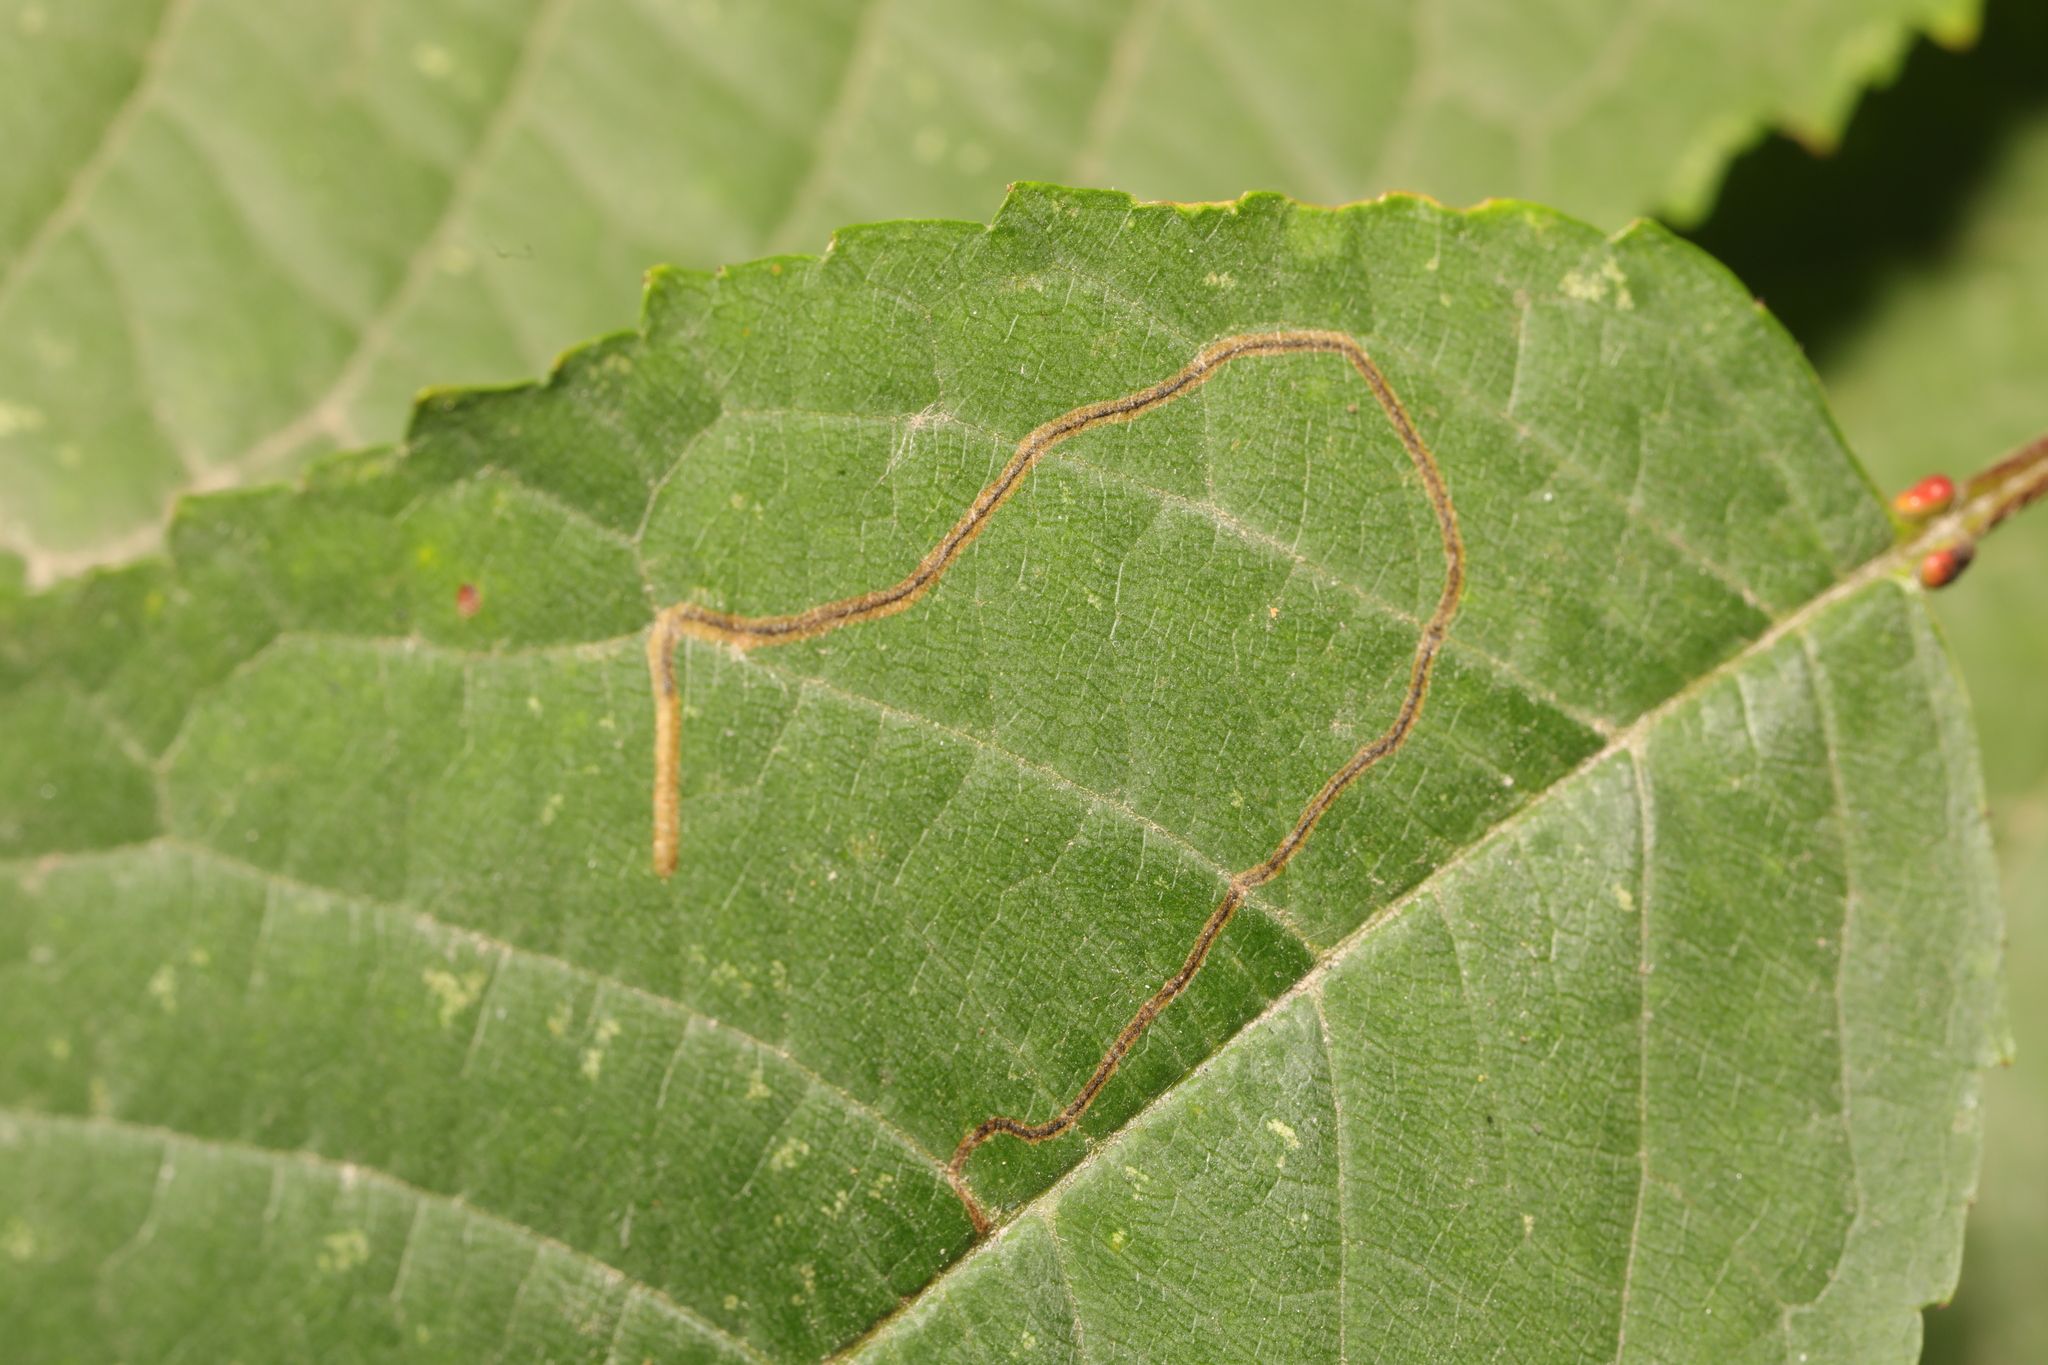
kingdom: Animalia
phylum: Arthropoda
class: Insecta
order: Lepidoptera
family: Lyonetiidae
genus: Lyonetia
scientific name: Lyonetia clerkella
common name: Apple leaf miner
